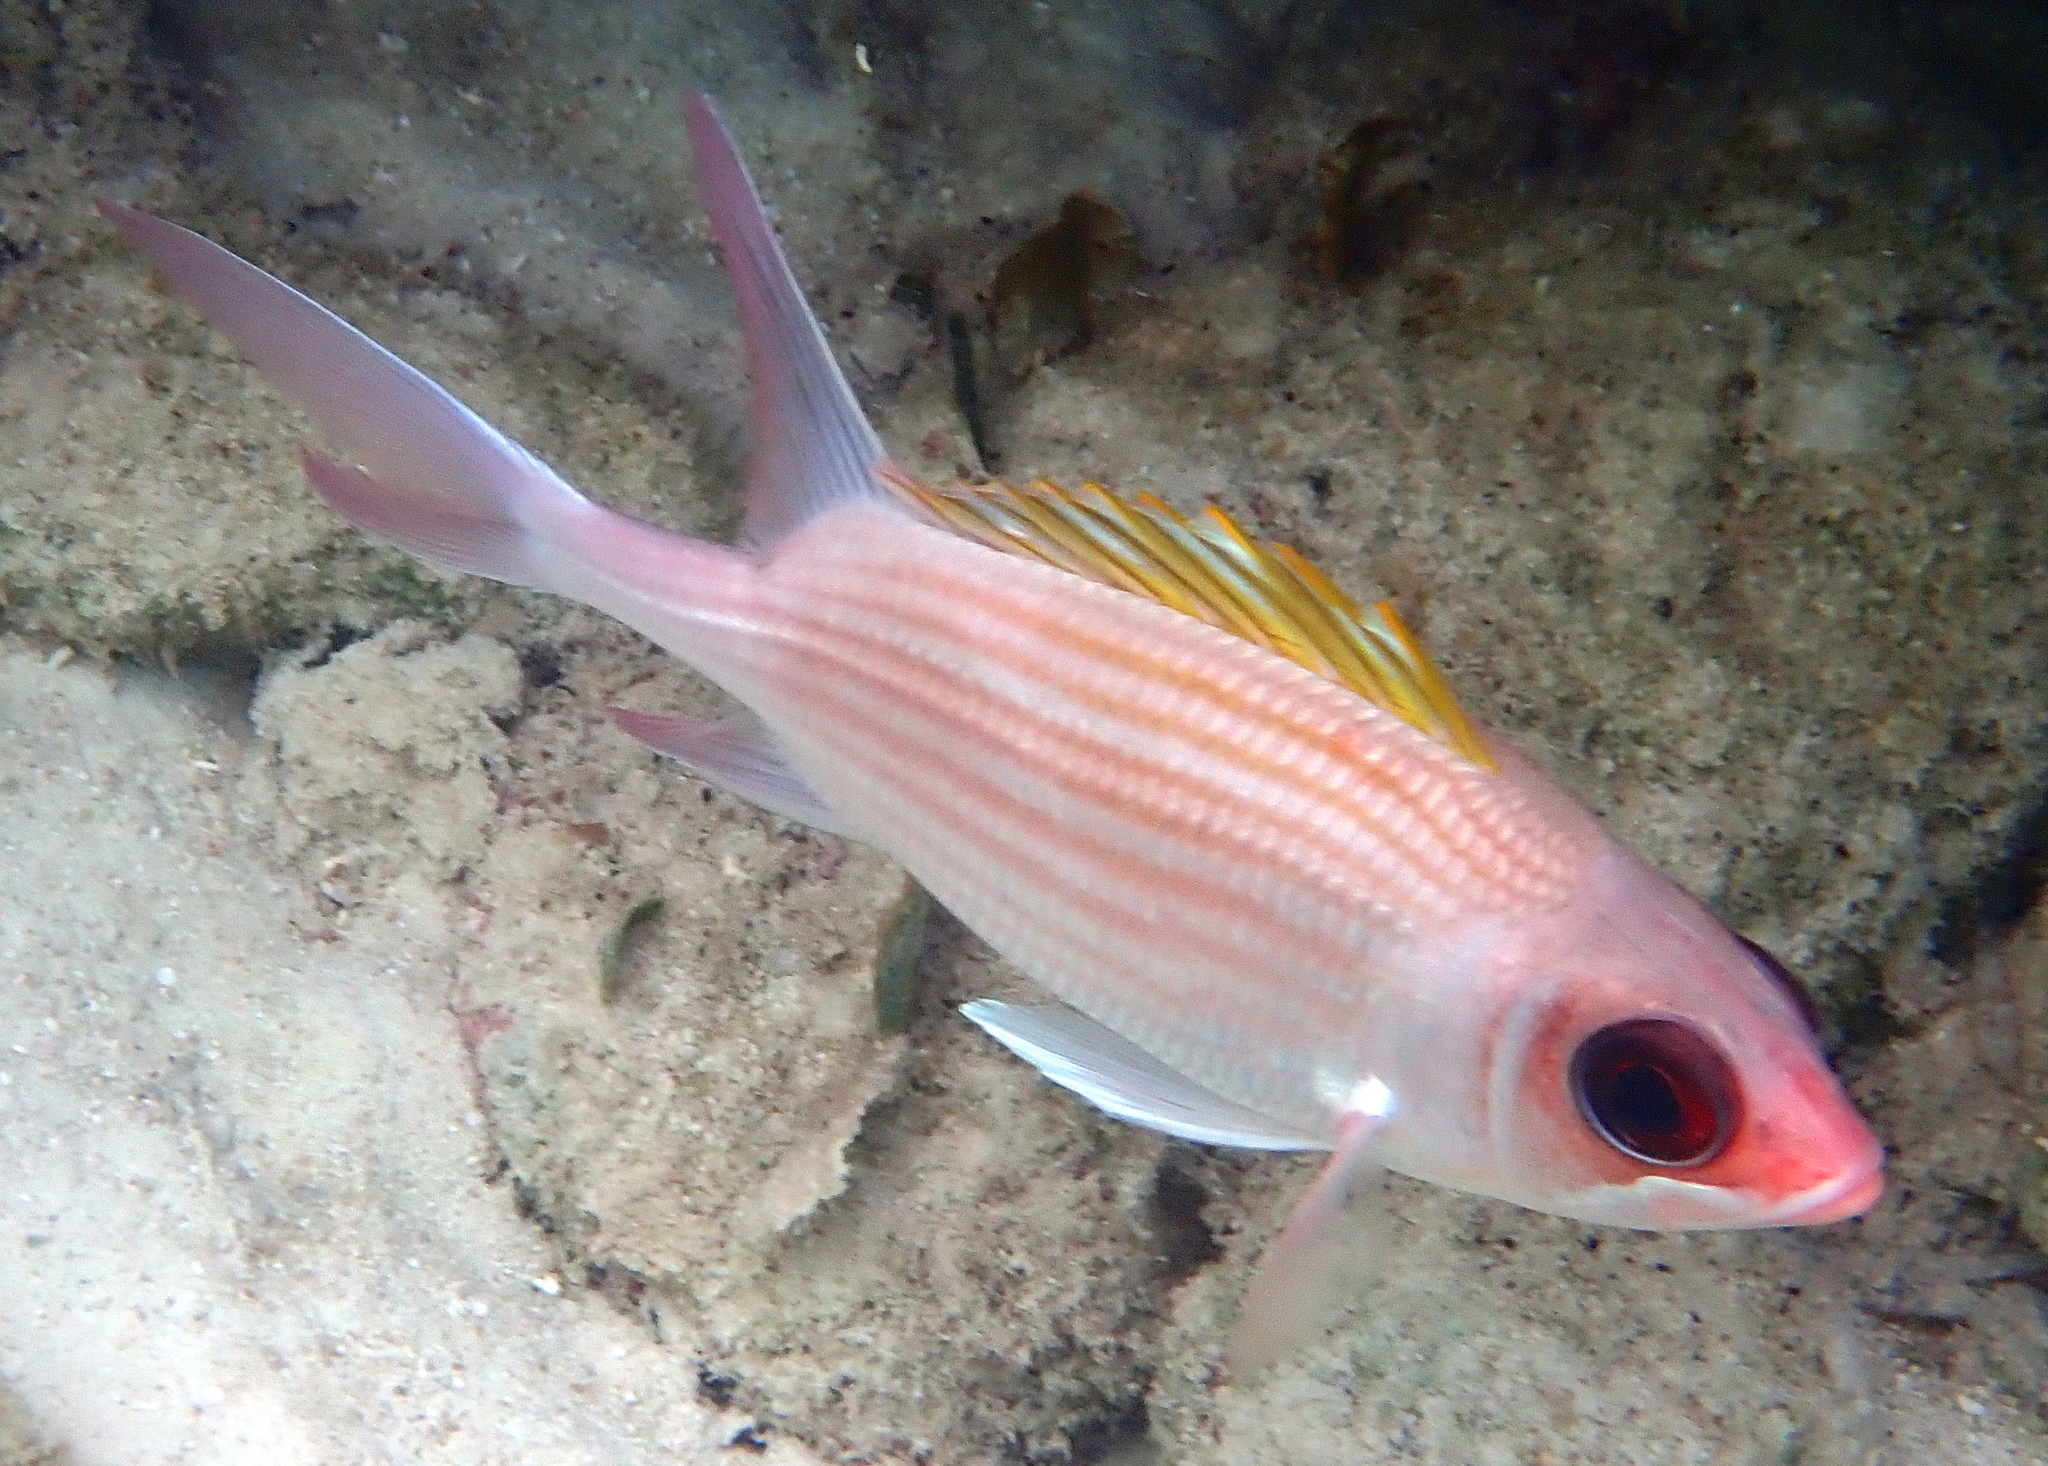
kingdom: Animalia
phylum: Chordata
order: Beryciformes
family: Holocentridae
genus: Holocentrus
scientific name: Holocentrus rufus
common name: Longspine squirrelfish
